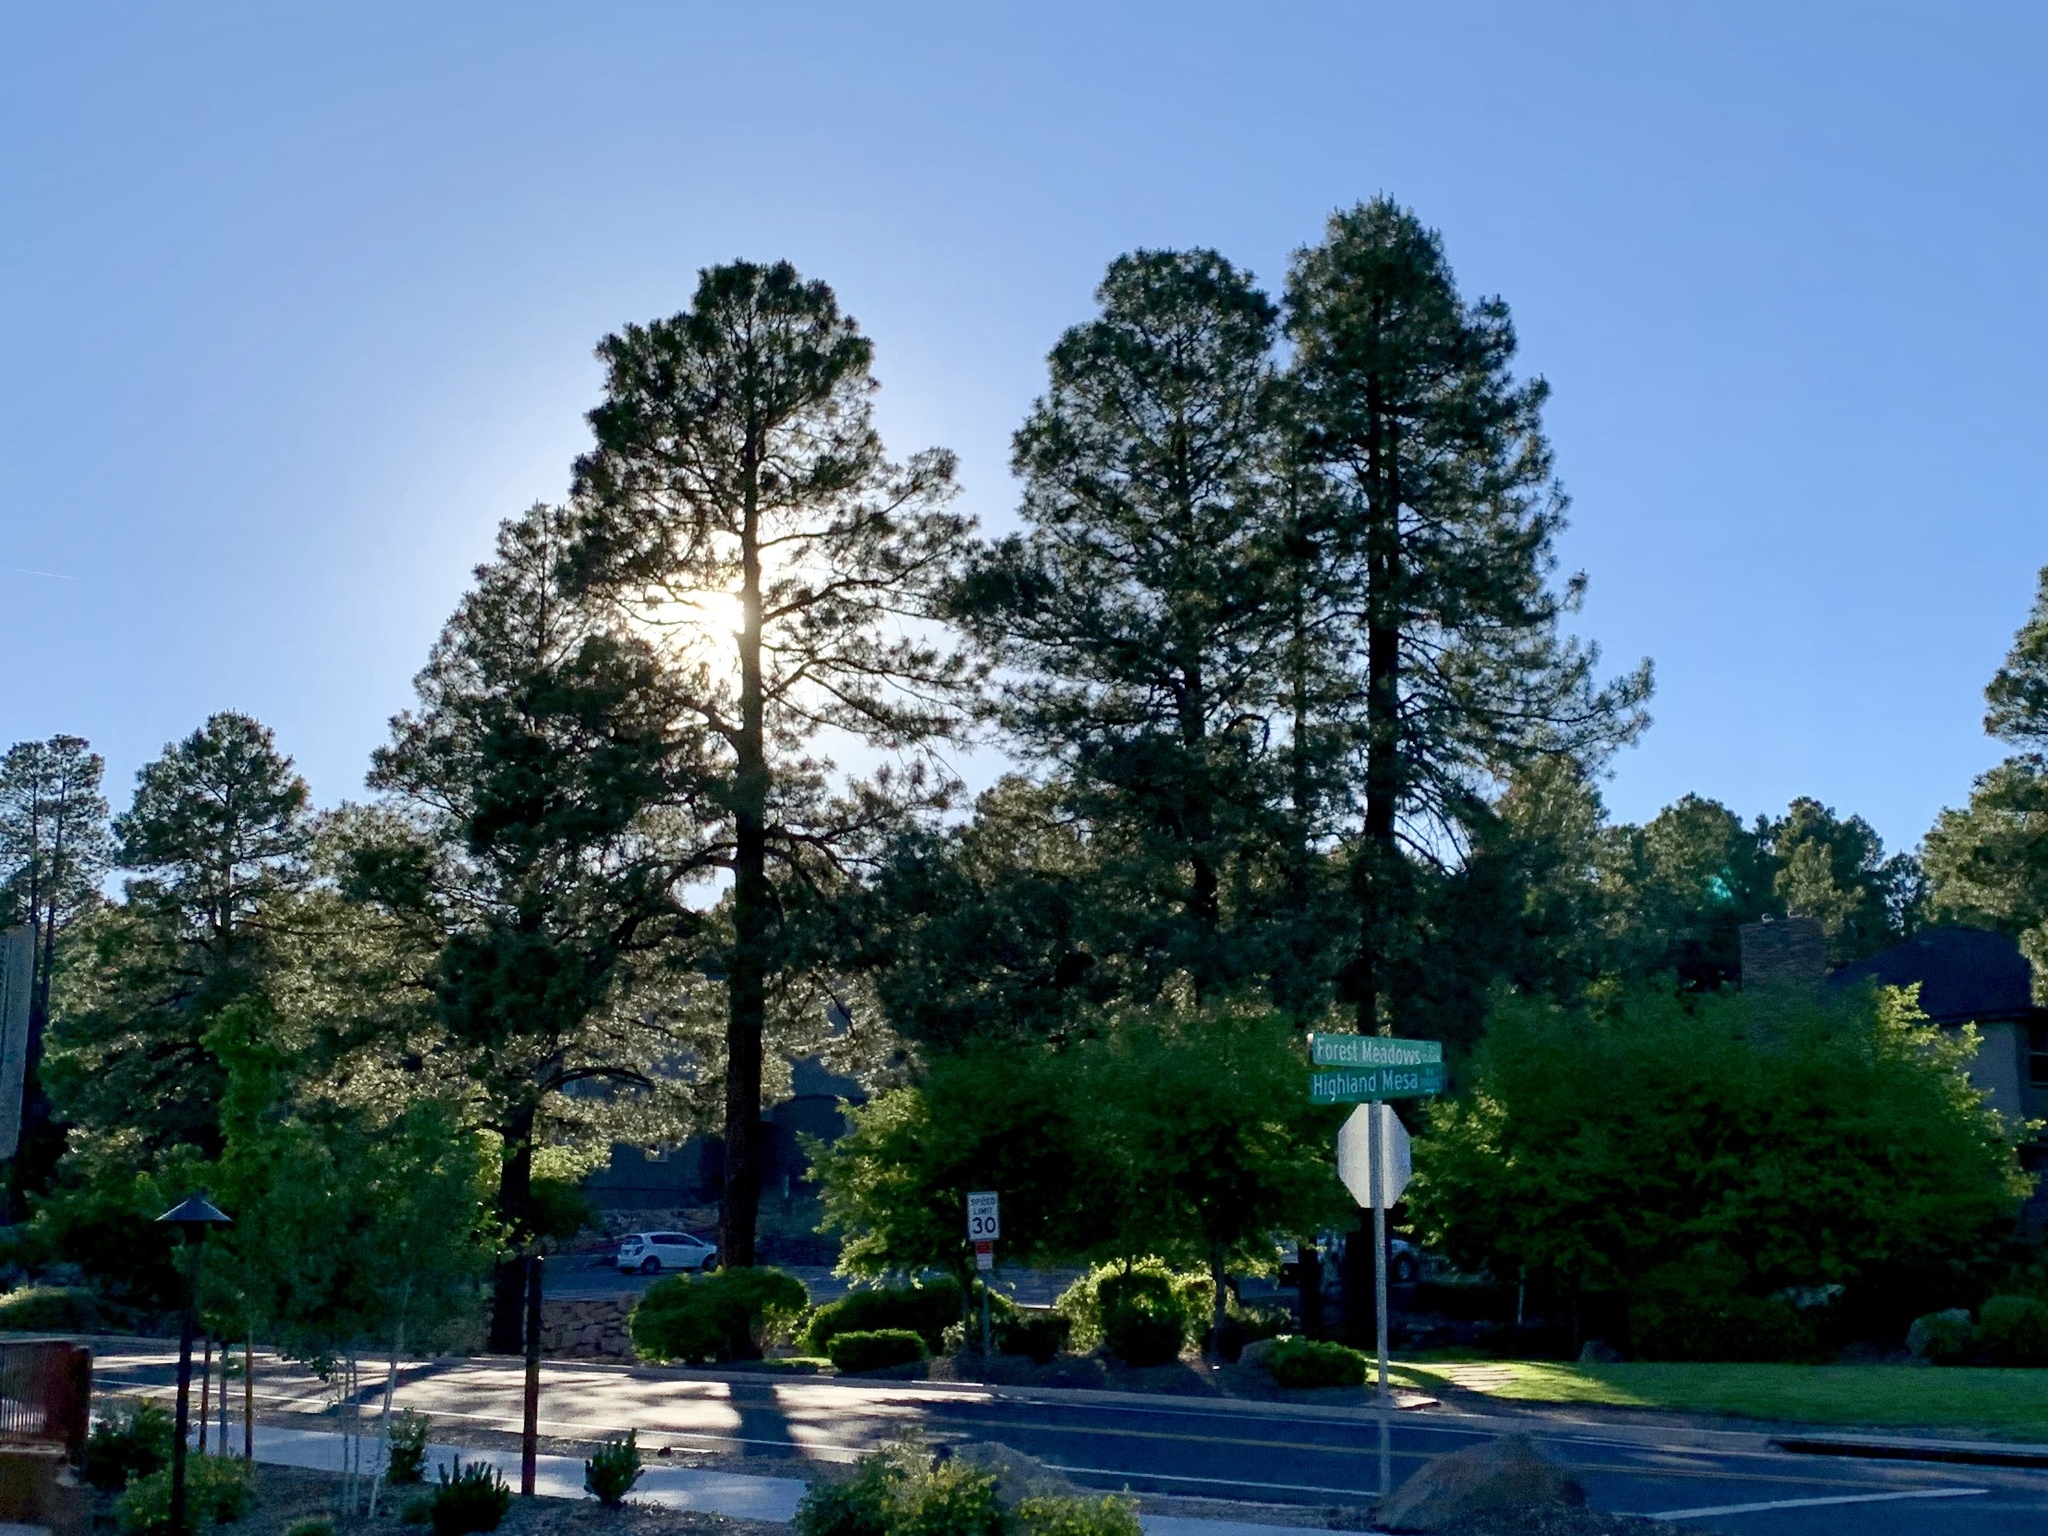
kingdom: Plantae
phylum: Tracheophyta
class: Pinopsida
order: Pinales
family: Pinaceae
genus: Pinus
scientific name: Pinus ponderosa
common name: Western yellow-pine
